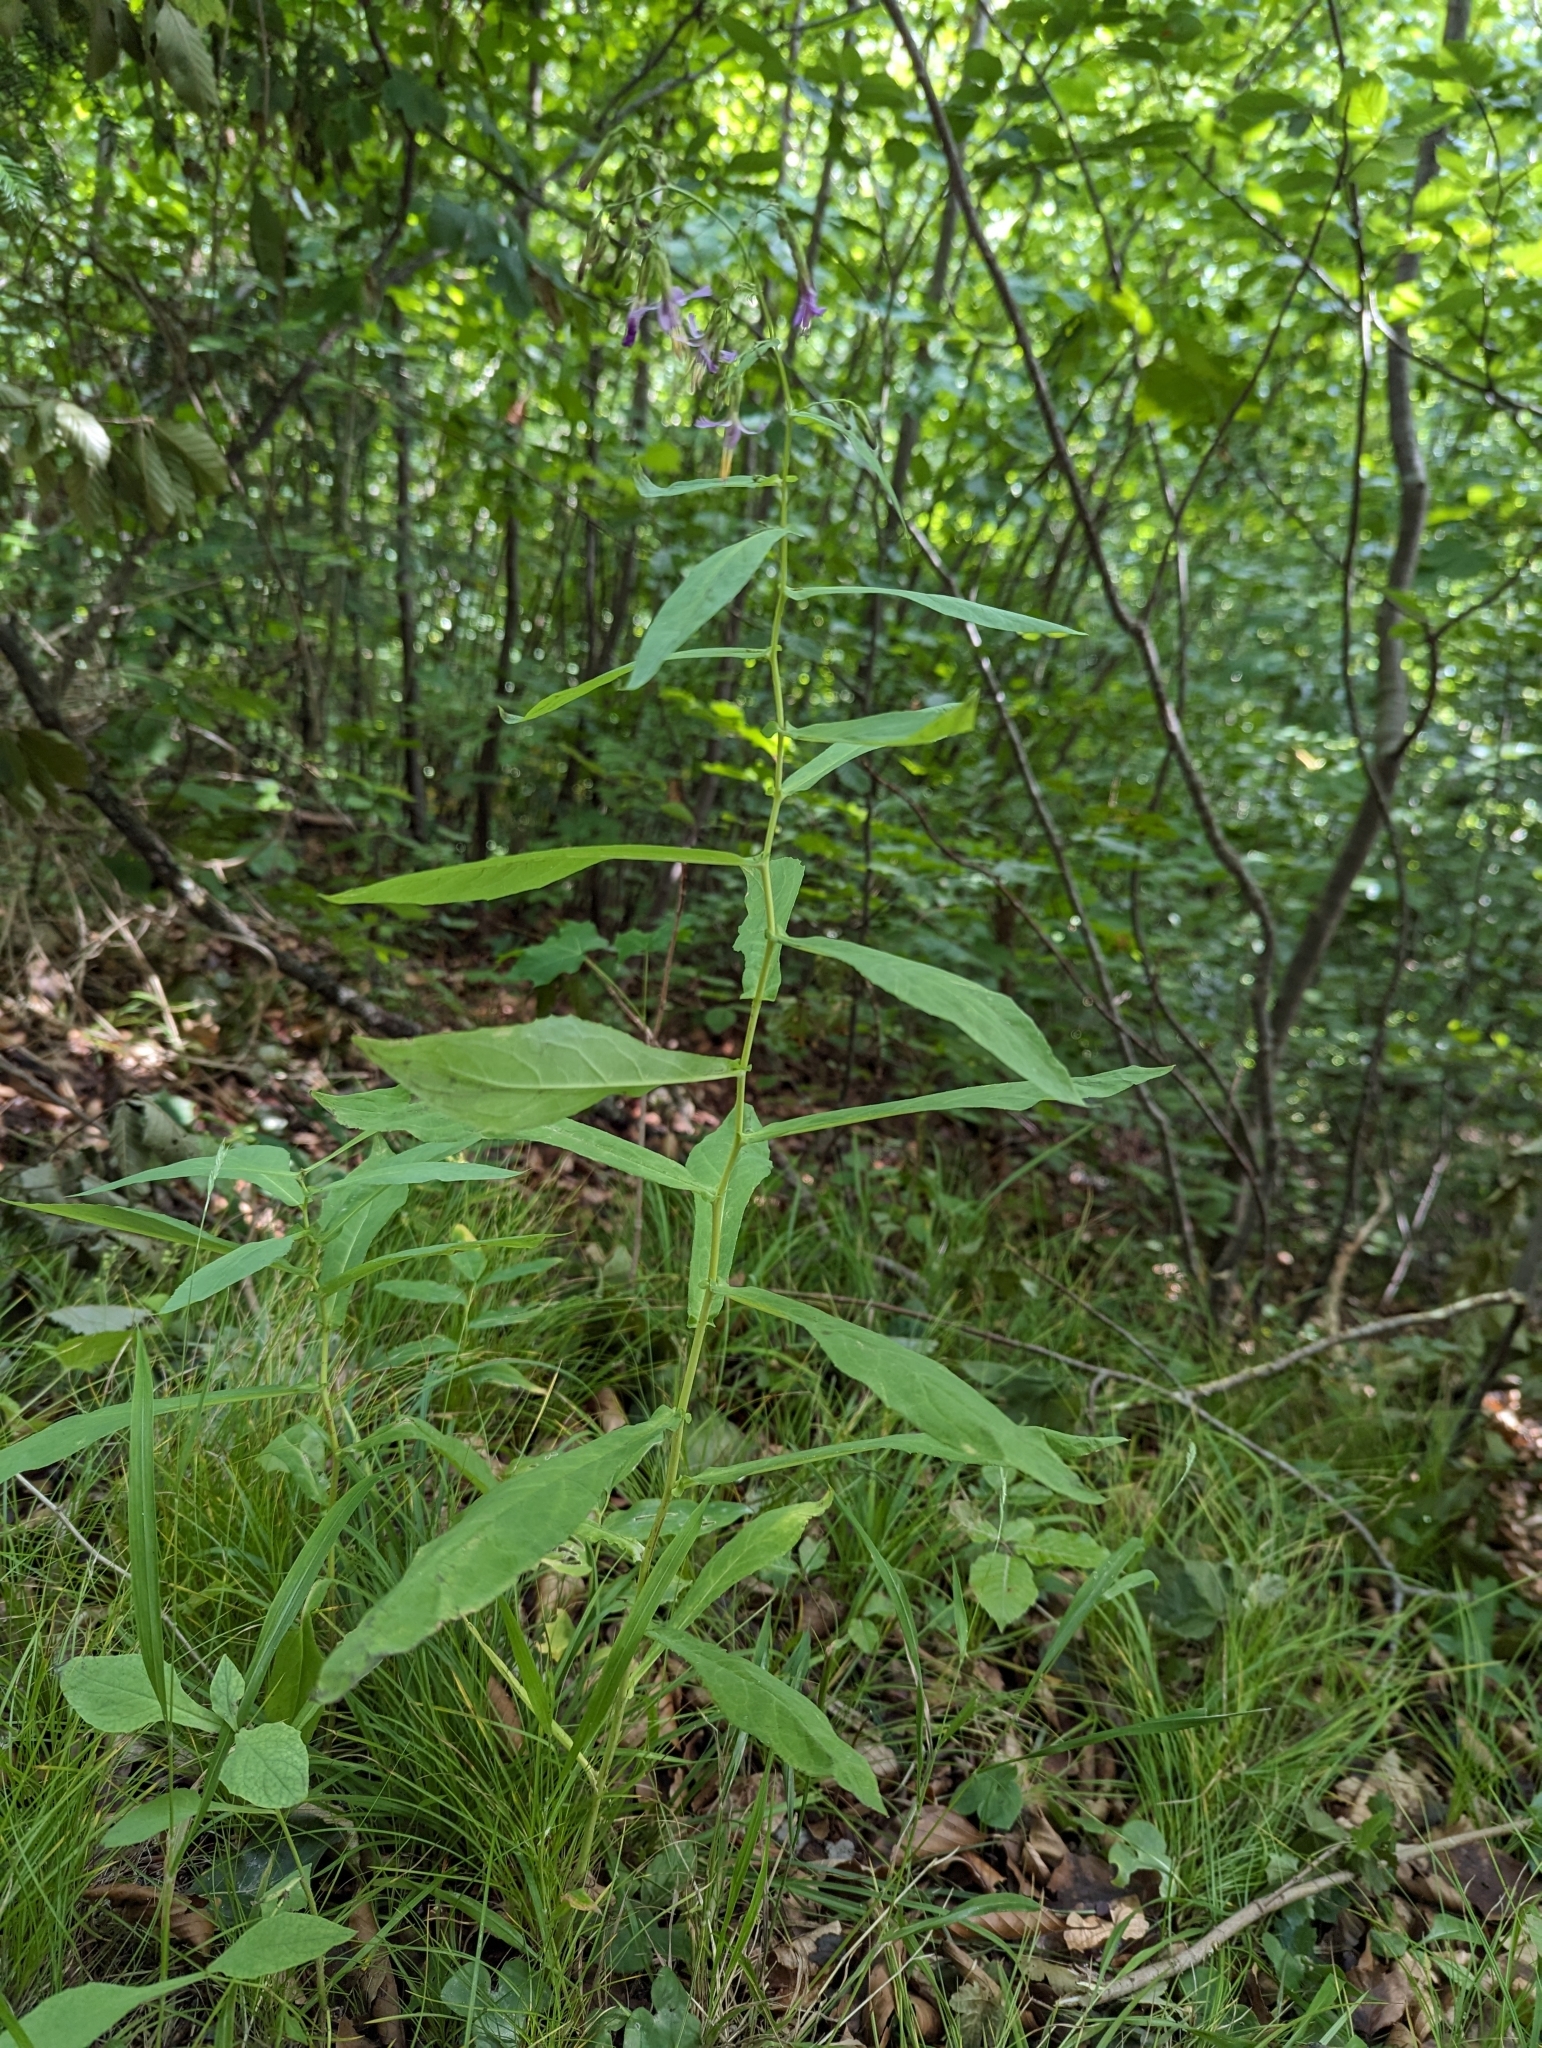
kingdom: Plantae
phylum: Tracheophyta
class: Magnoliopsida
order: Asterales
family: Asteraceae
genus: Prenanthes
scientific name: Prenanthes purpurea
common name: Purple lettuce
